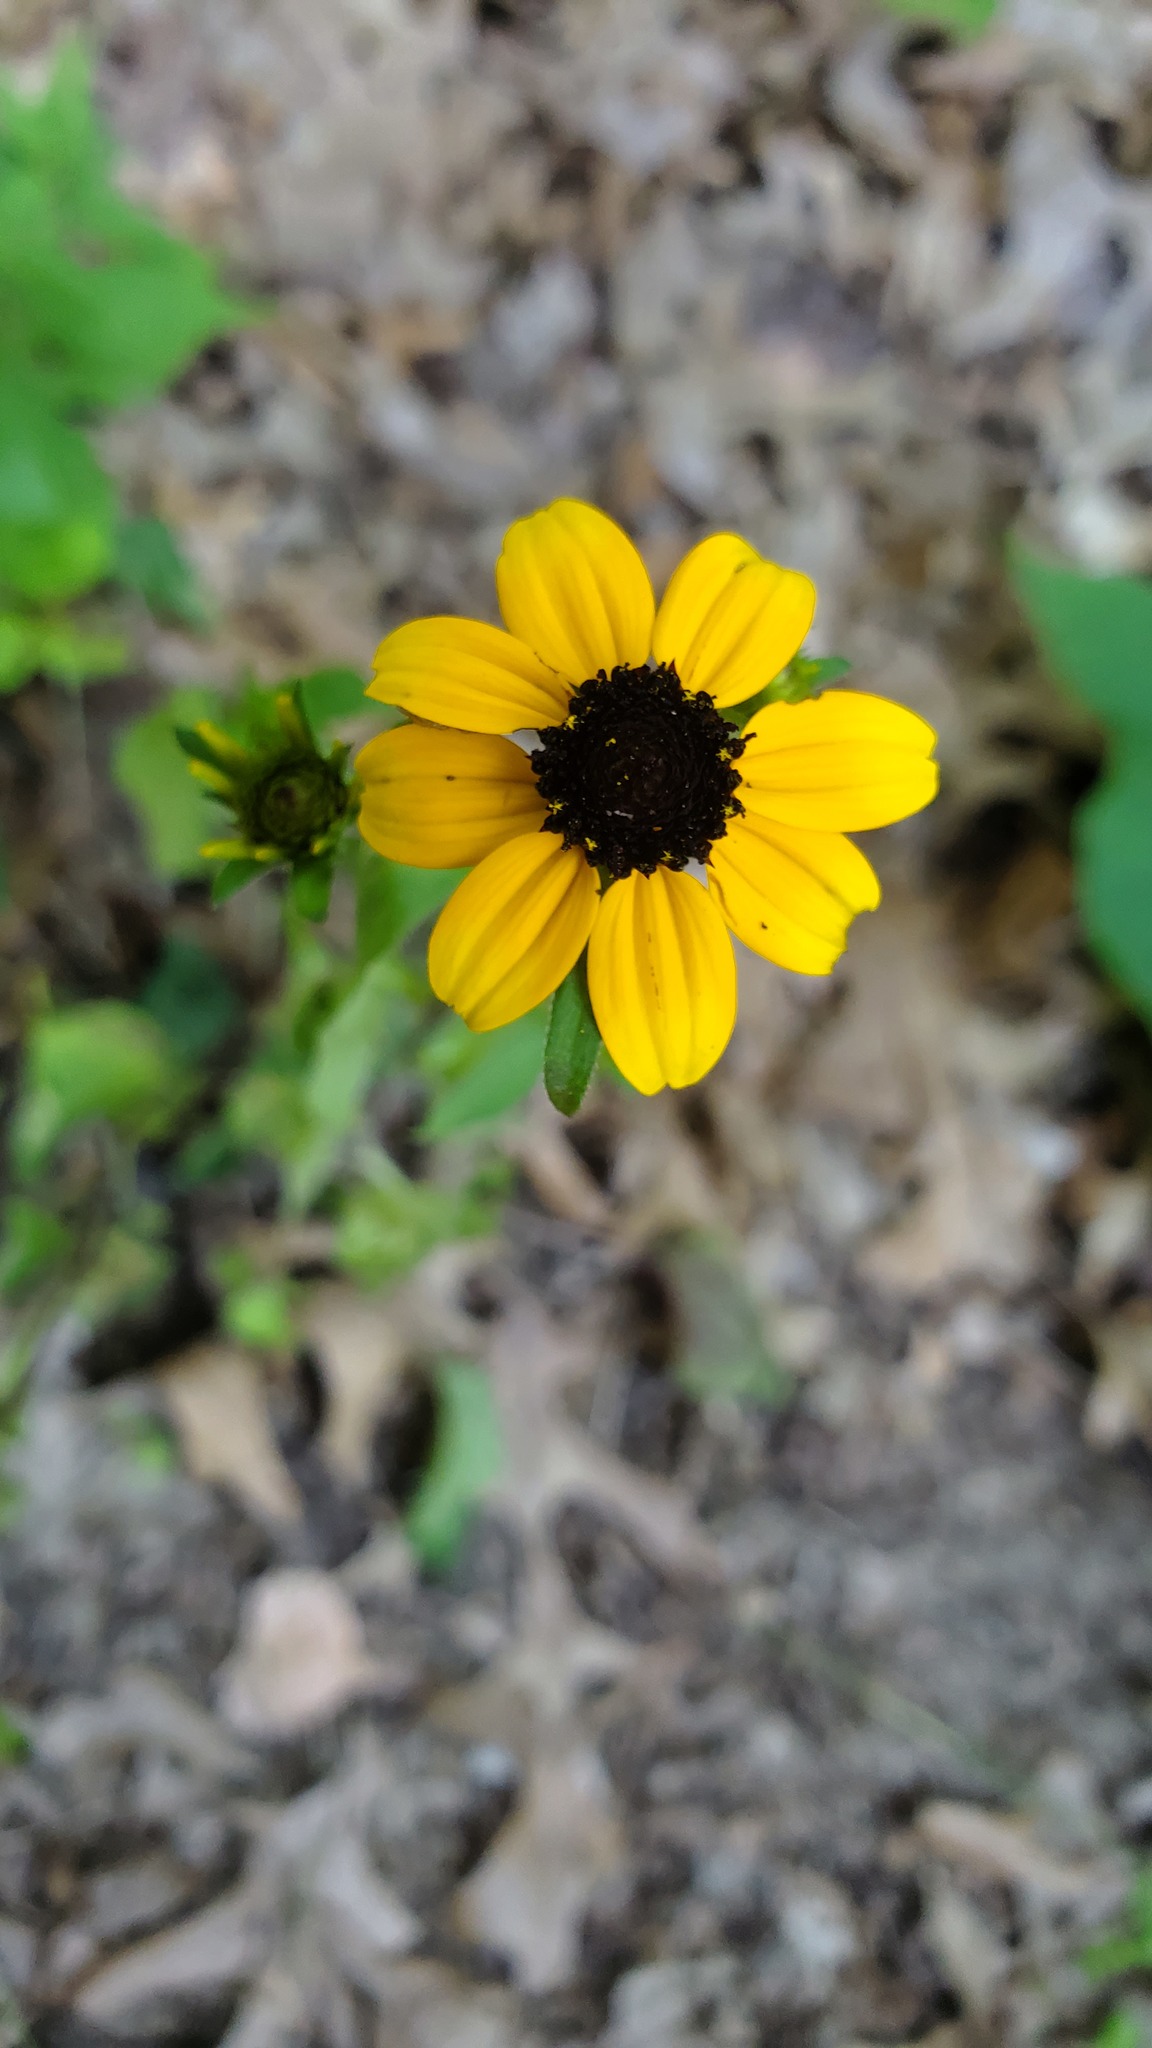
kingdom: Plantae
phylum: Tracheophyta
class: Magnoliopsida
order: Asterales
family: Asteraceae
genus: Rudbeckia
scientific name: Rudbeckia triloba
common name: Thin-leaved coneflower
